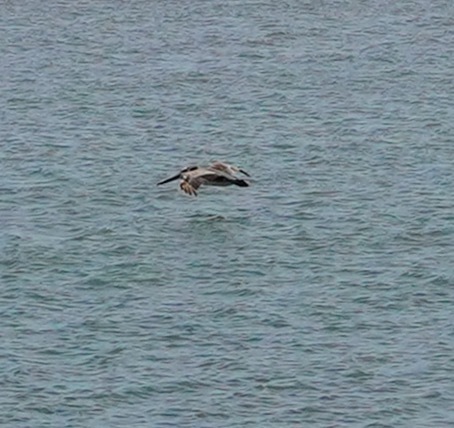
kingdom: Animalia
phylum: Chordata
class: Aves
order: Pelecaniformes
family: Pelecanidae
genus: Pelecanus
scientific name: Pelecanus occidentalis
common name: Brown pelican
